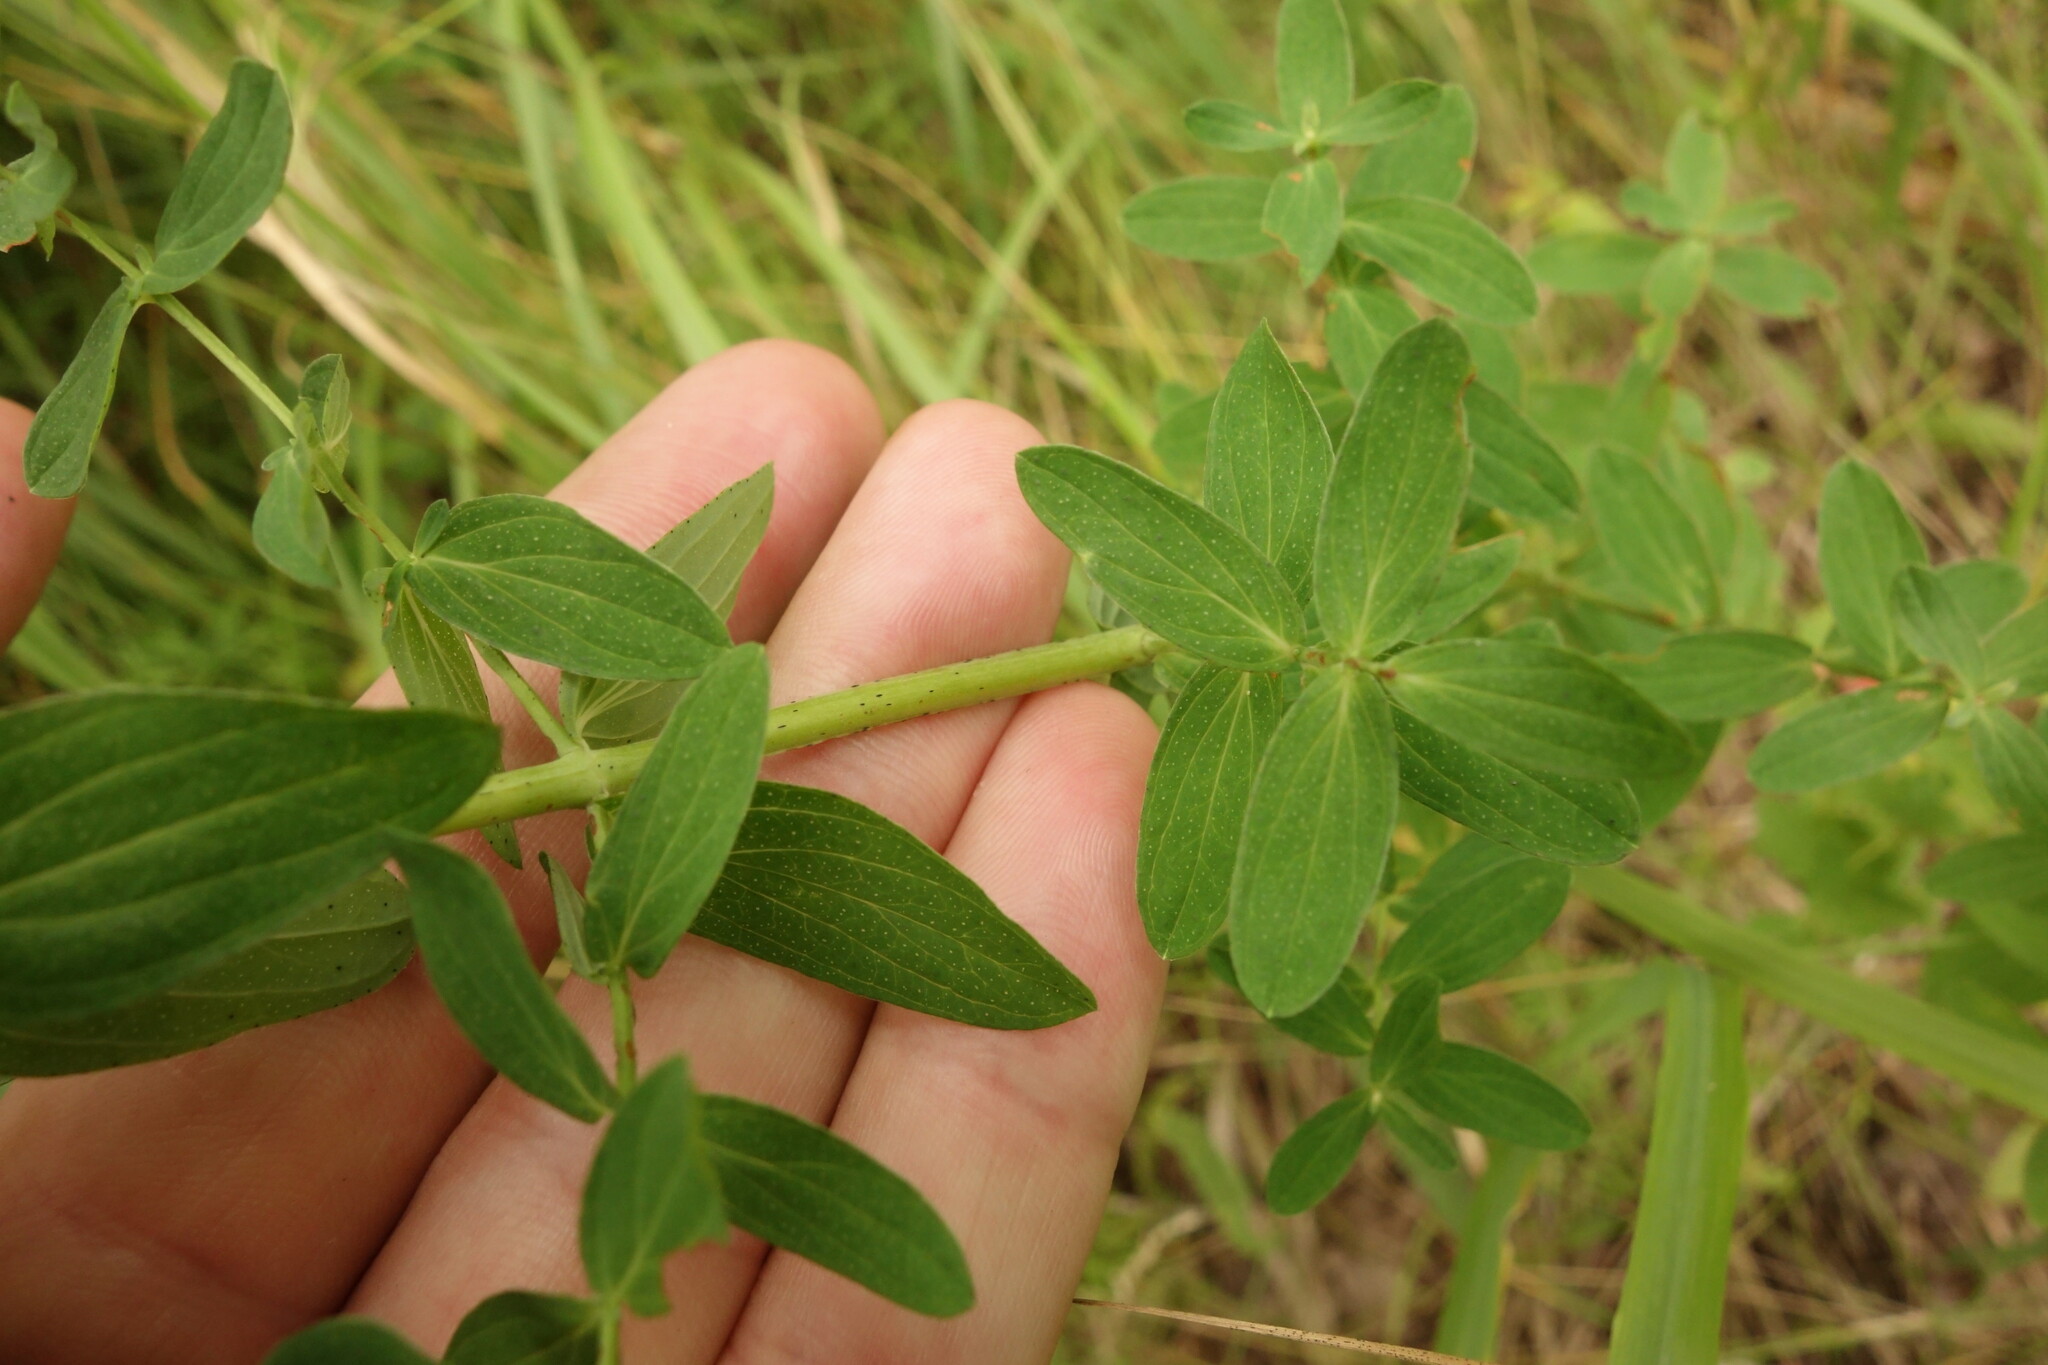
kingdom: Plantae
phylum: Tracheophyta
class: Magnoliopsida
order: Malpighiales
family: Hypericaceae
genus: Hypericum
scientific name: Hypericum perforatum
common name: Common st. johnswort
